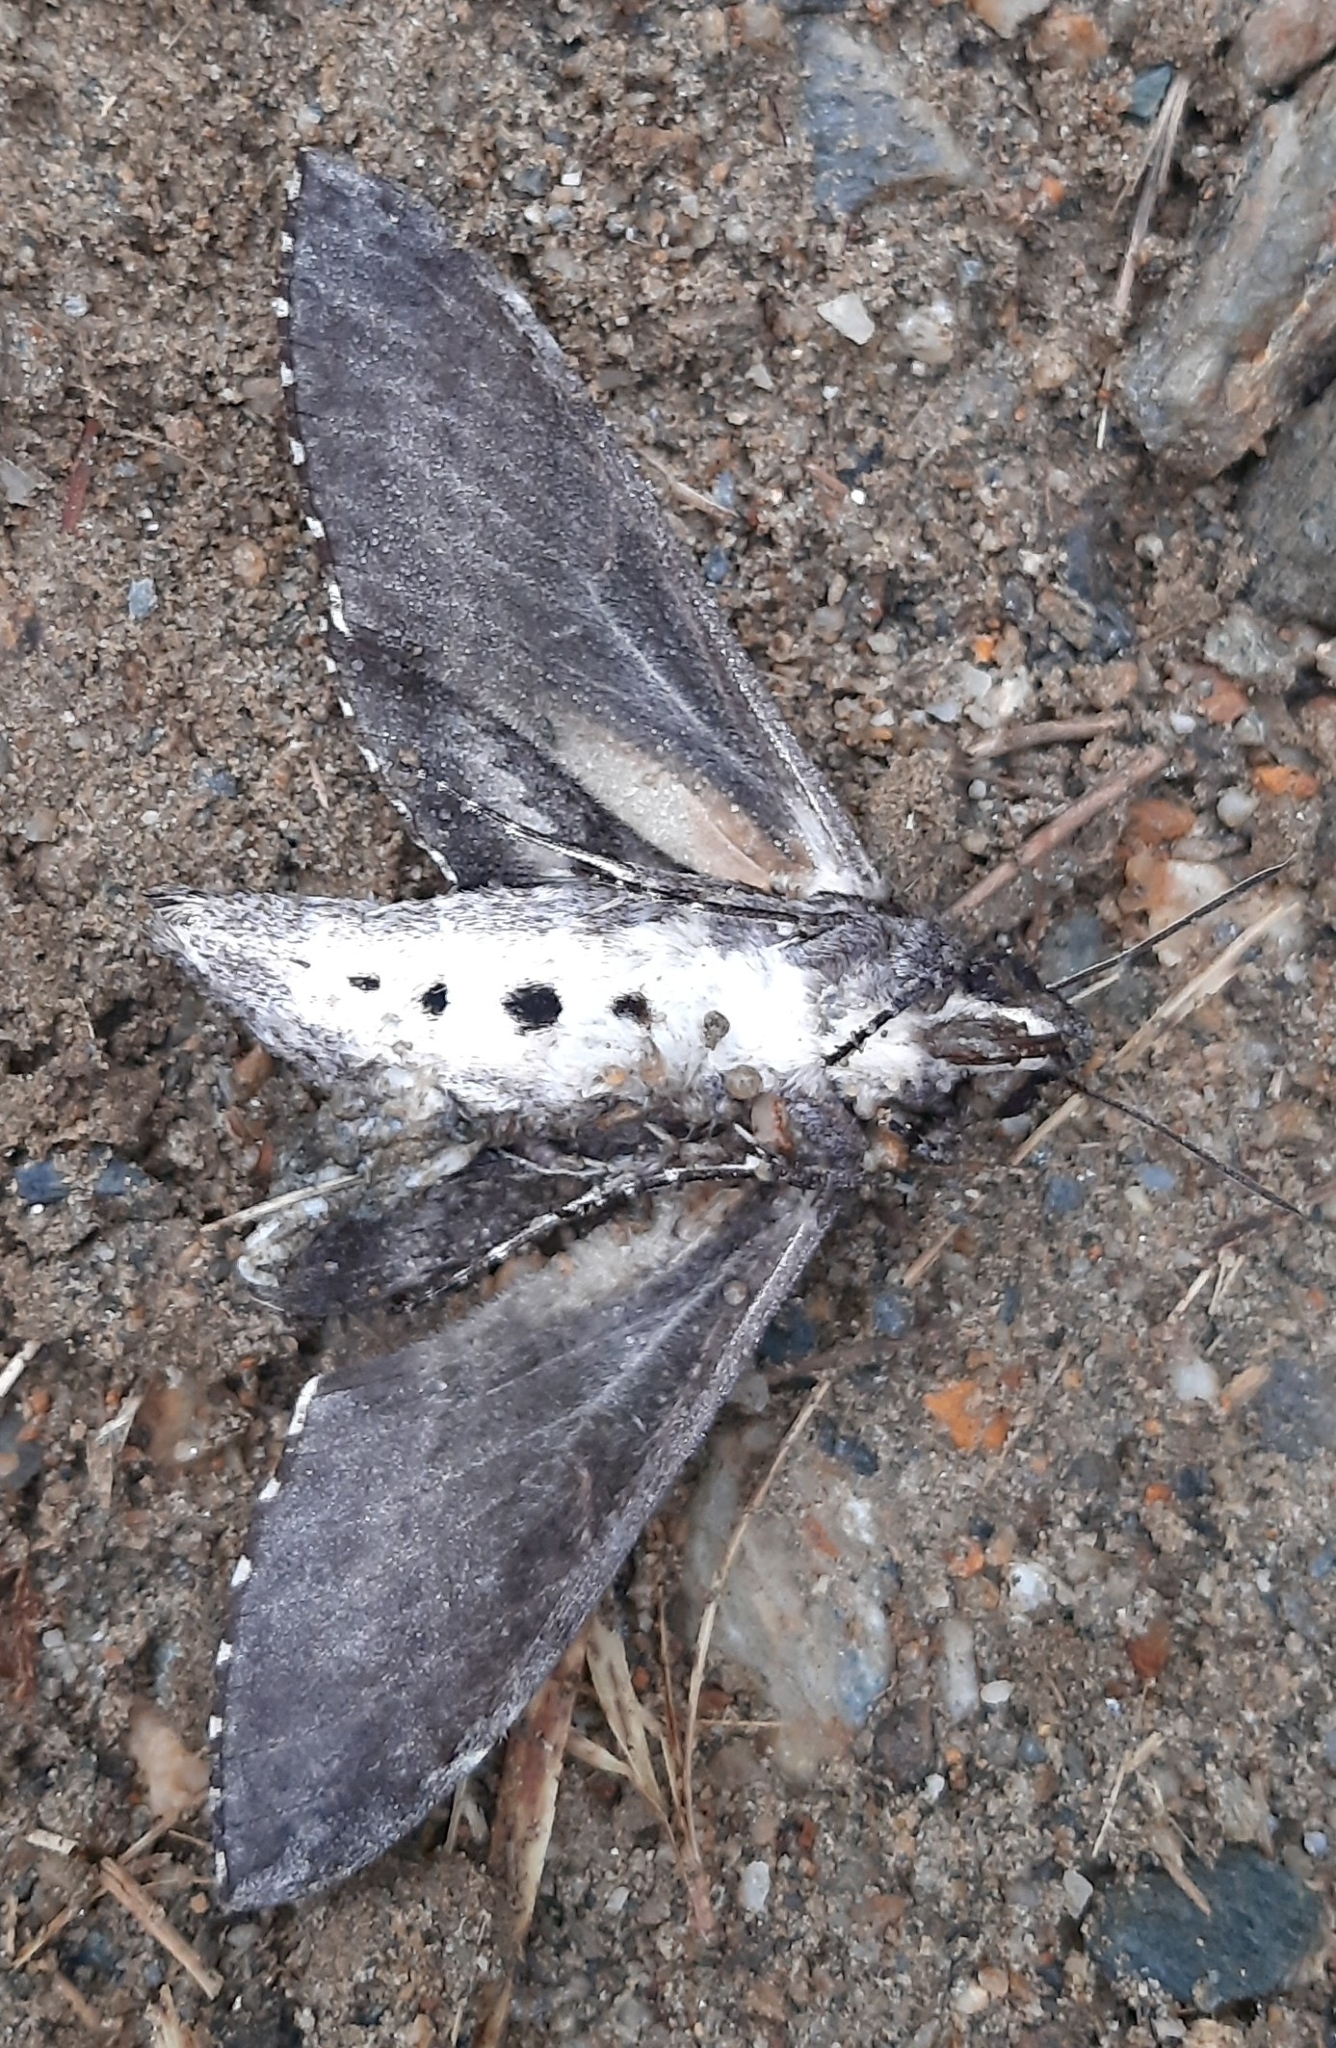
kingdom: Animalia
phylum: Arthropoda
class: Insecta
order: Lepidoptera
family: Sphingidae
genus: Agrius
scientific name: Agrius cingulata
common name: Pink-spotted hawkmoth
